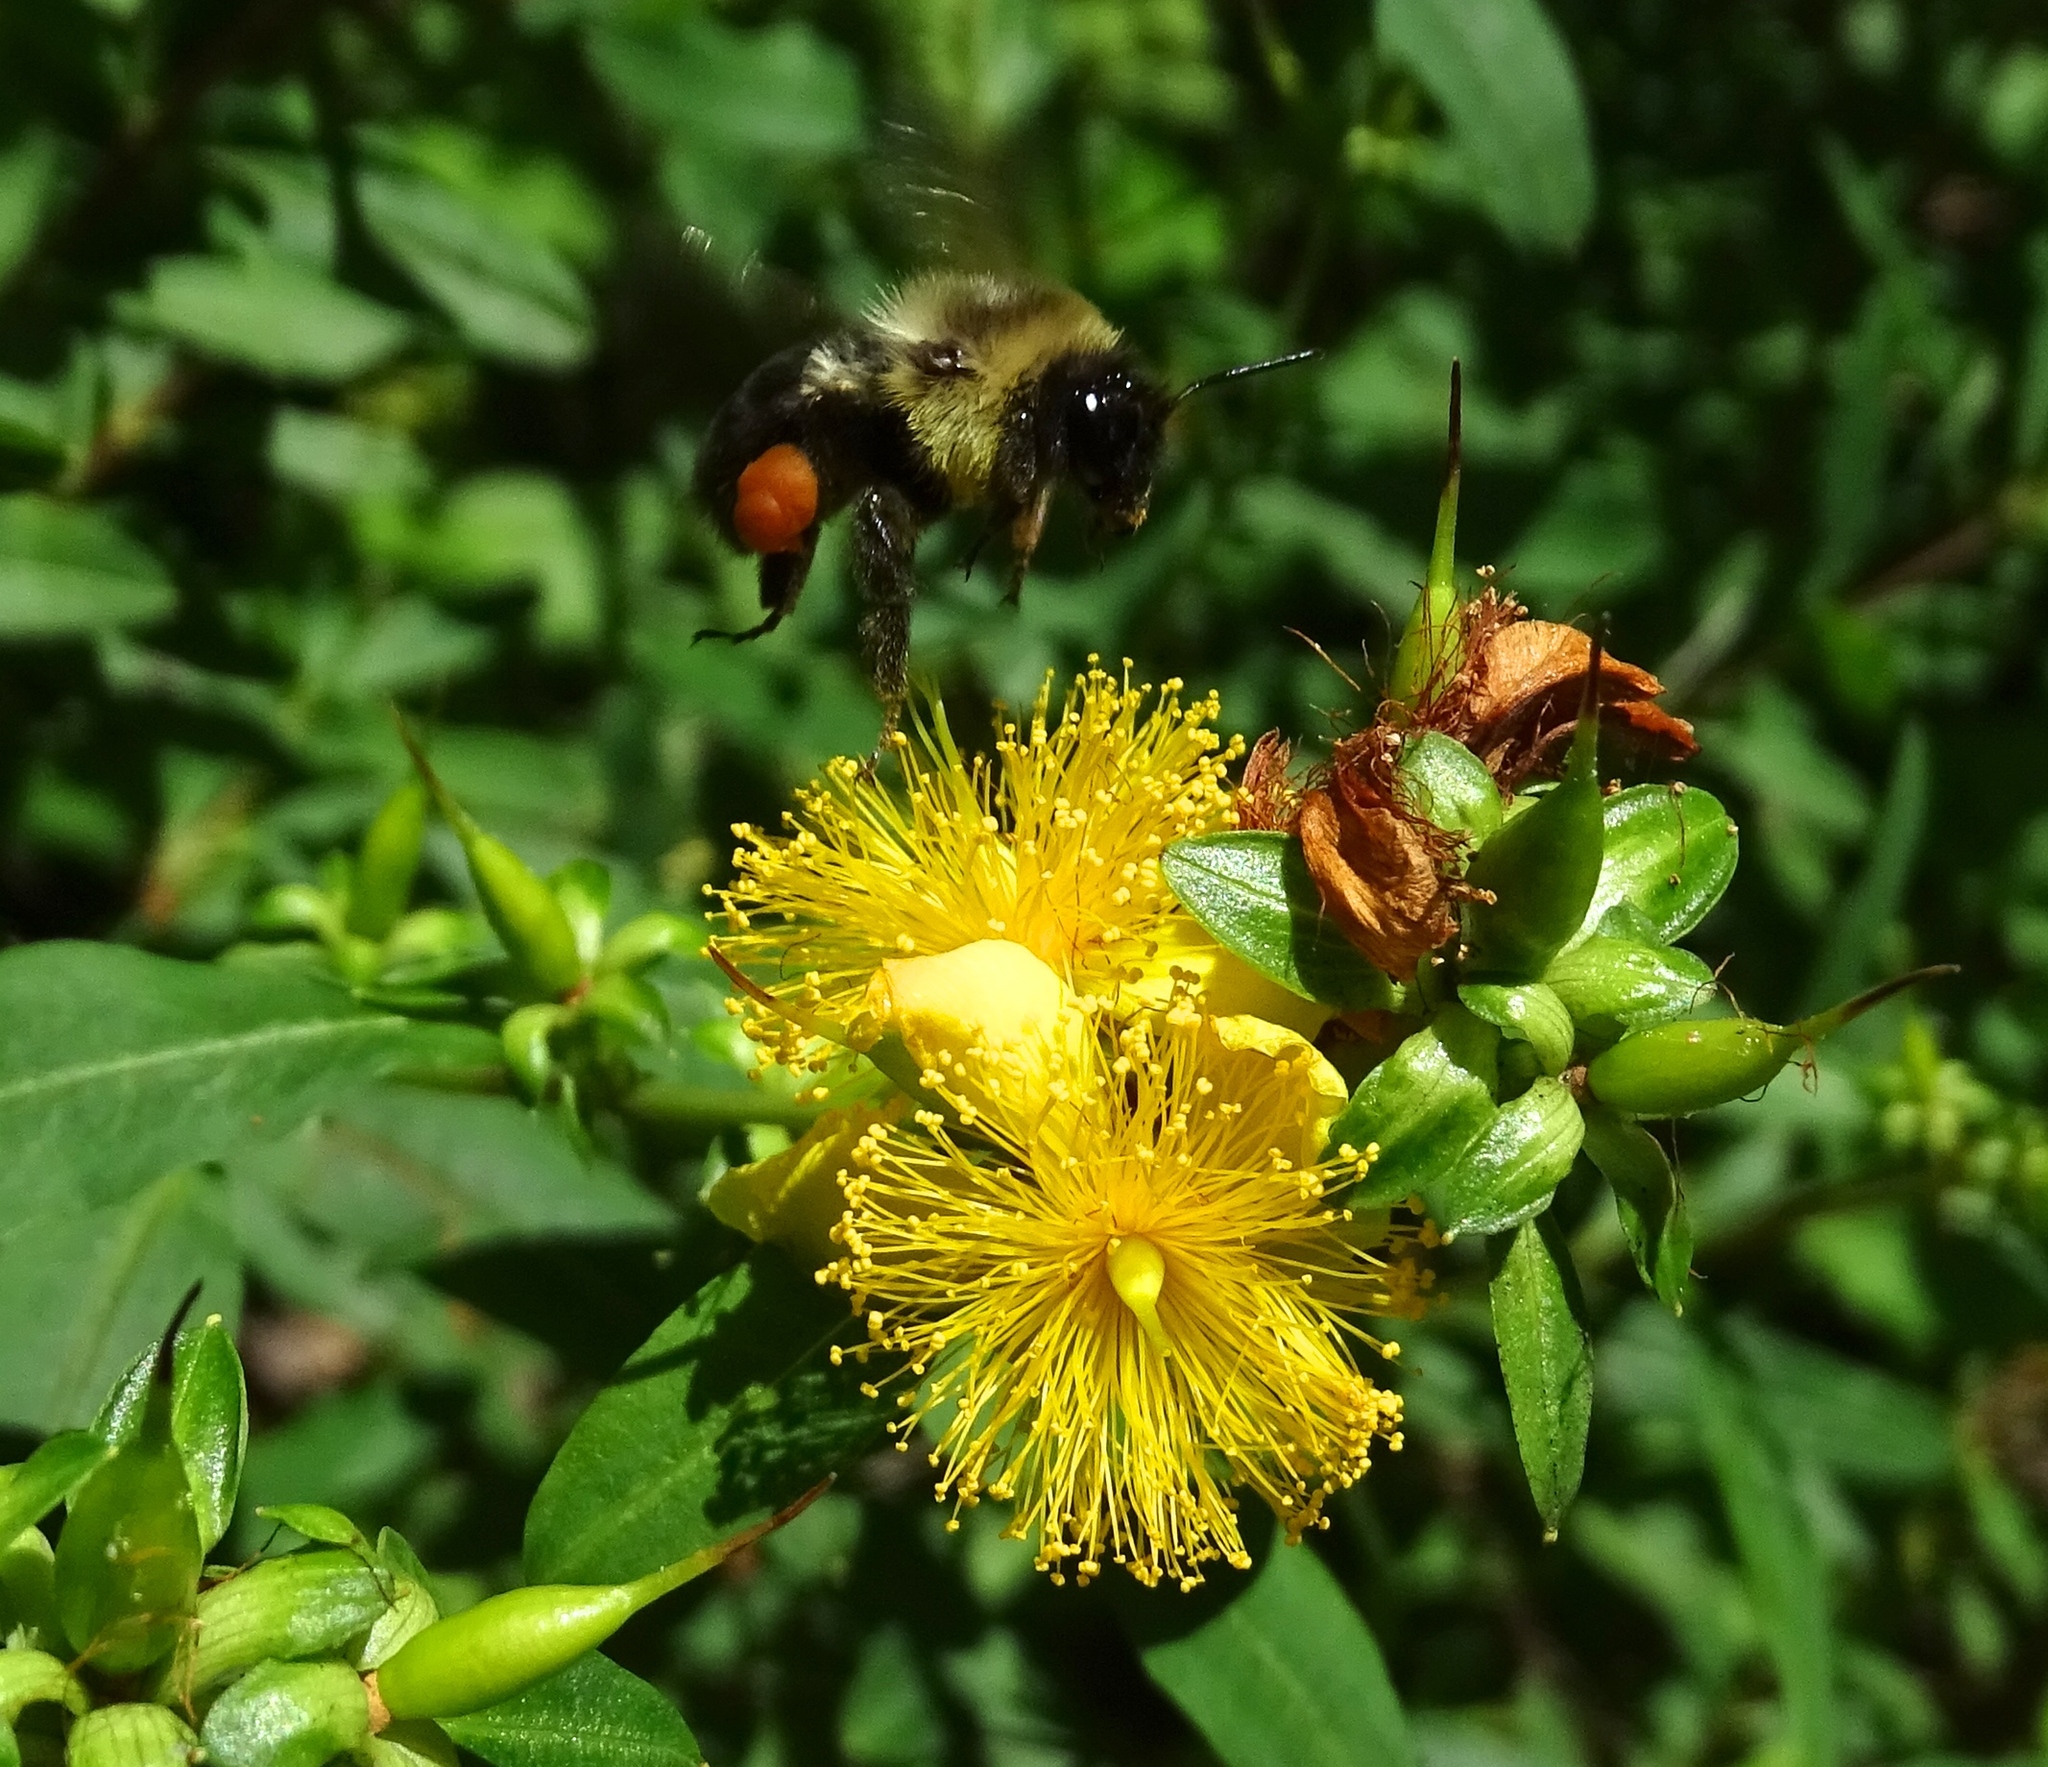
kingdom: Animalia
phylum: Arthropoda
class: Insecta
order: Hymenoptera
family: Apidae
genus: Bombus
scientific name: Bombus impatiens
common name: Common eastern bumble bee
